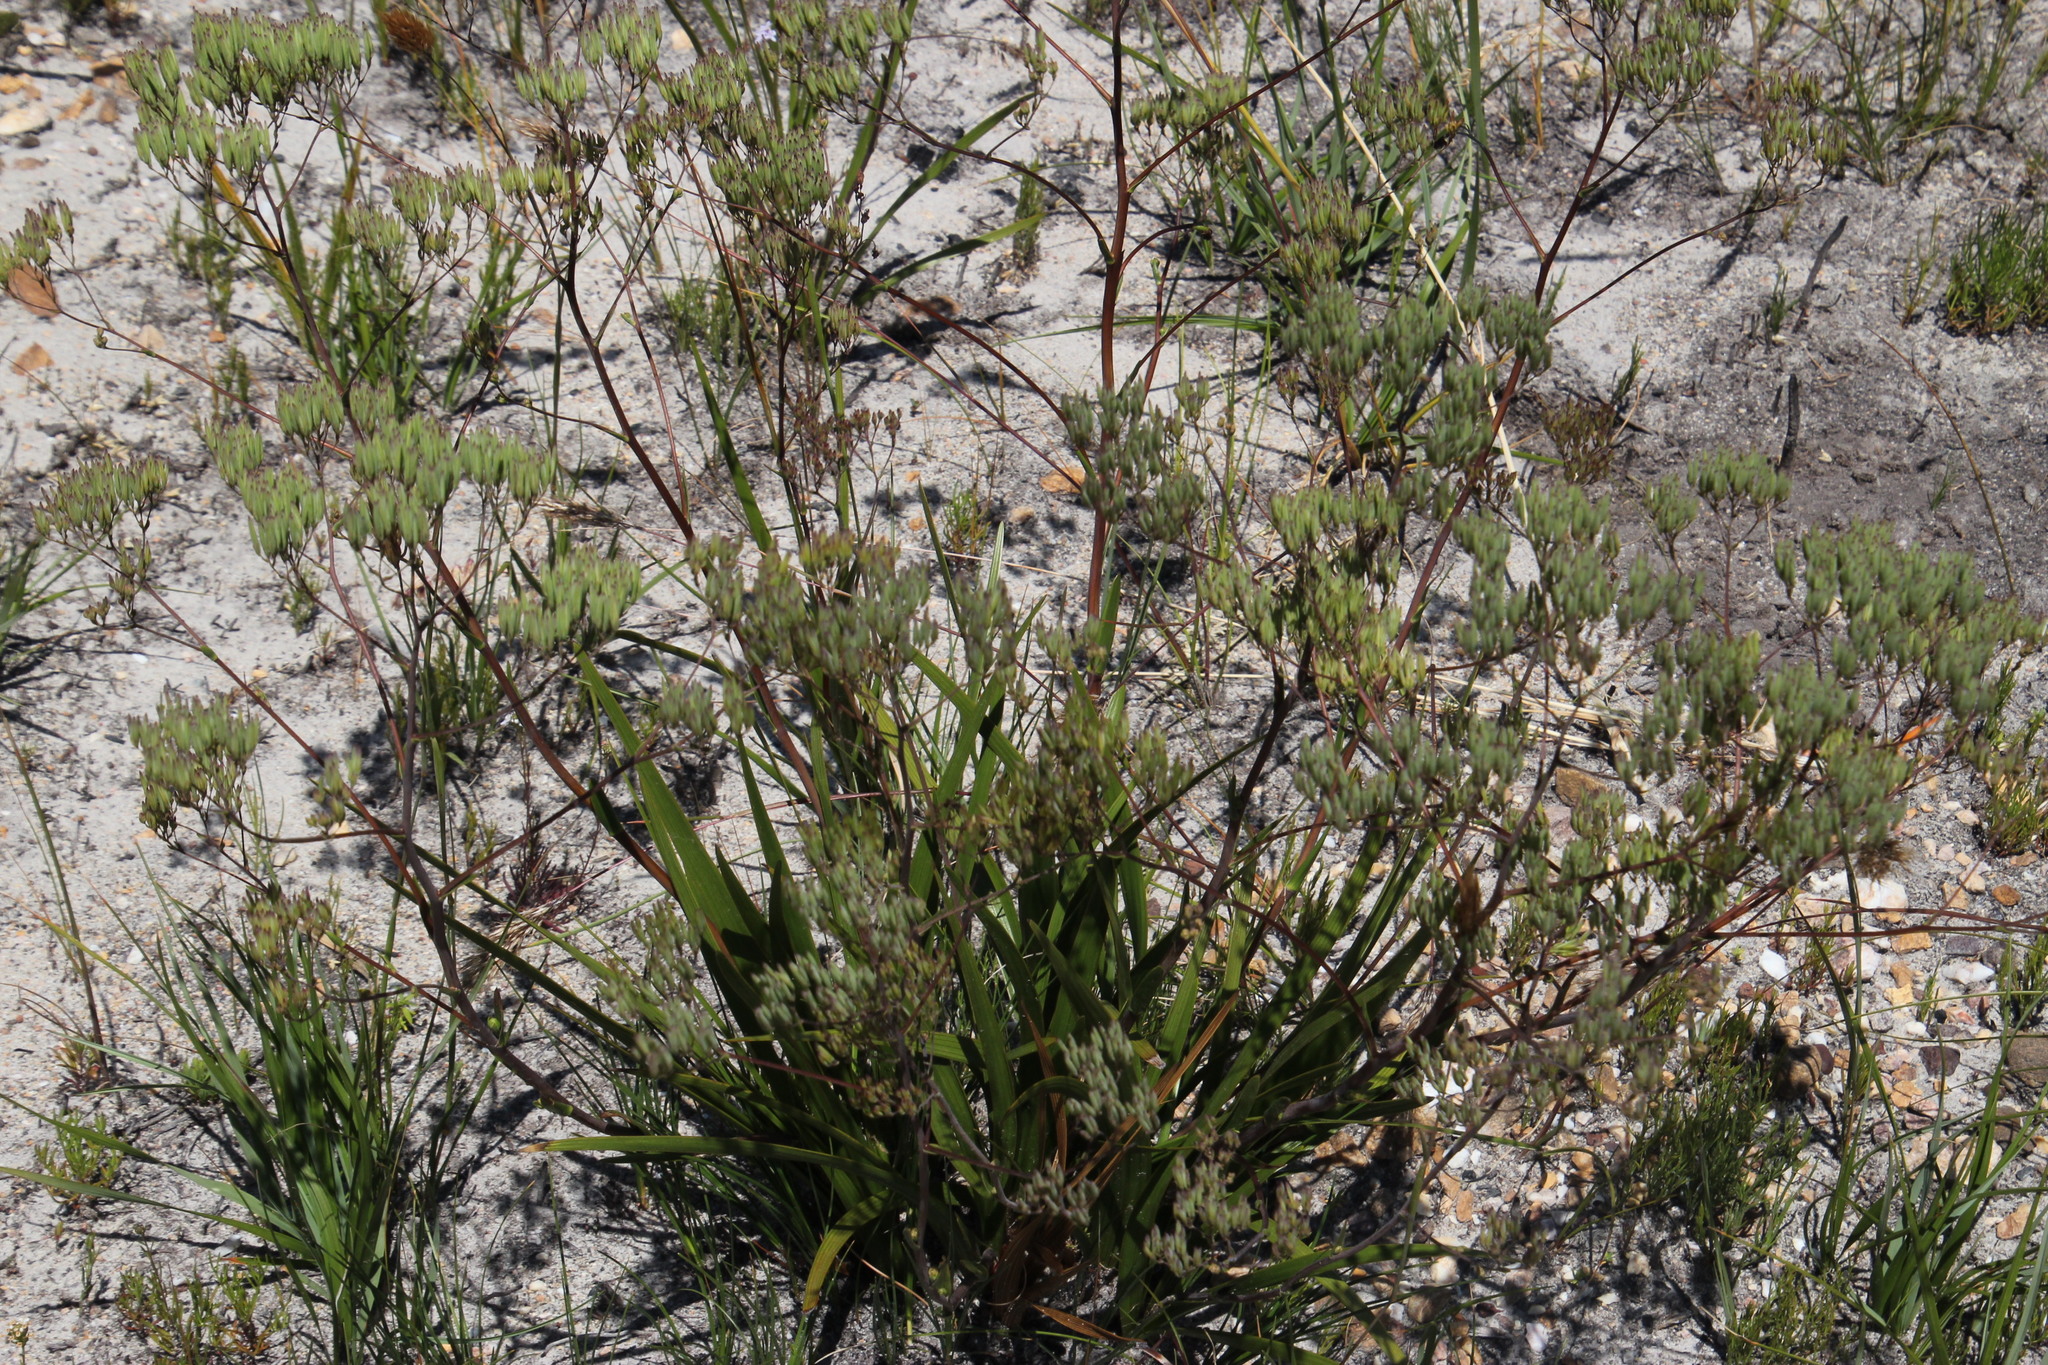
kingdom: Plantae
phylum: Tracheophyta
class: Magnoliopsida
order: Asterales
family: Asteraceae
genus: Corymbium
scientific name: Corymbium glabrum
